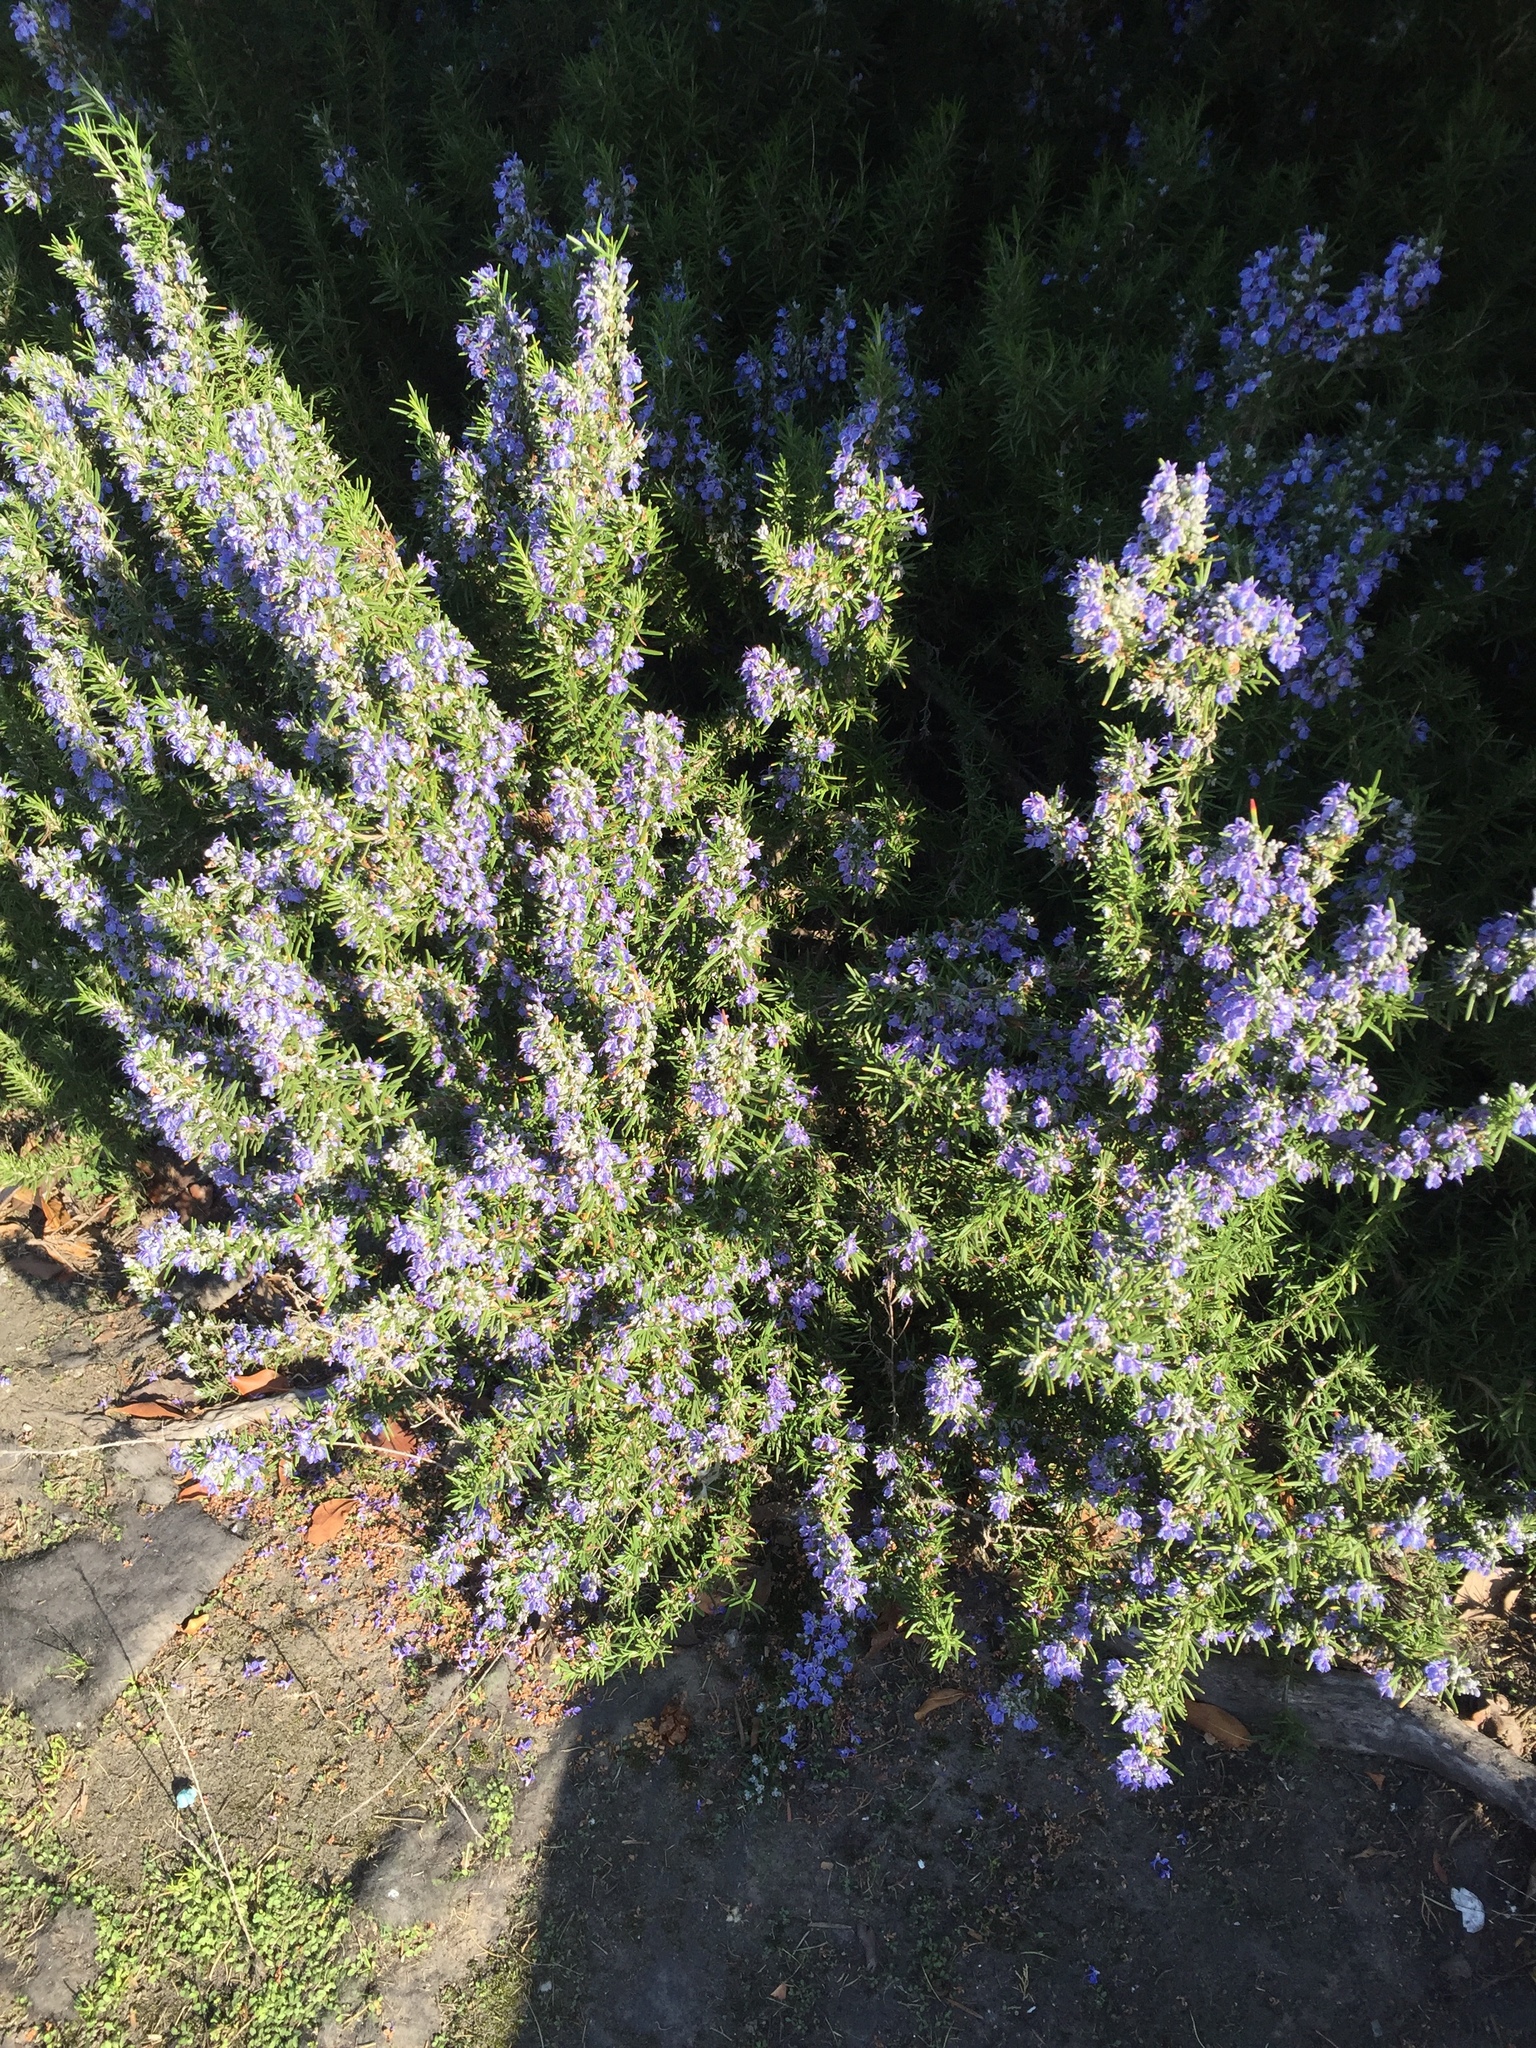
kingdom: Animalia
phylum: Arthropoda
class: Insecta
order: Hymenoptera
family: Apidae
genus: Apis
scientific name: Apis mellifera
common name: Honey bee
